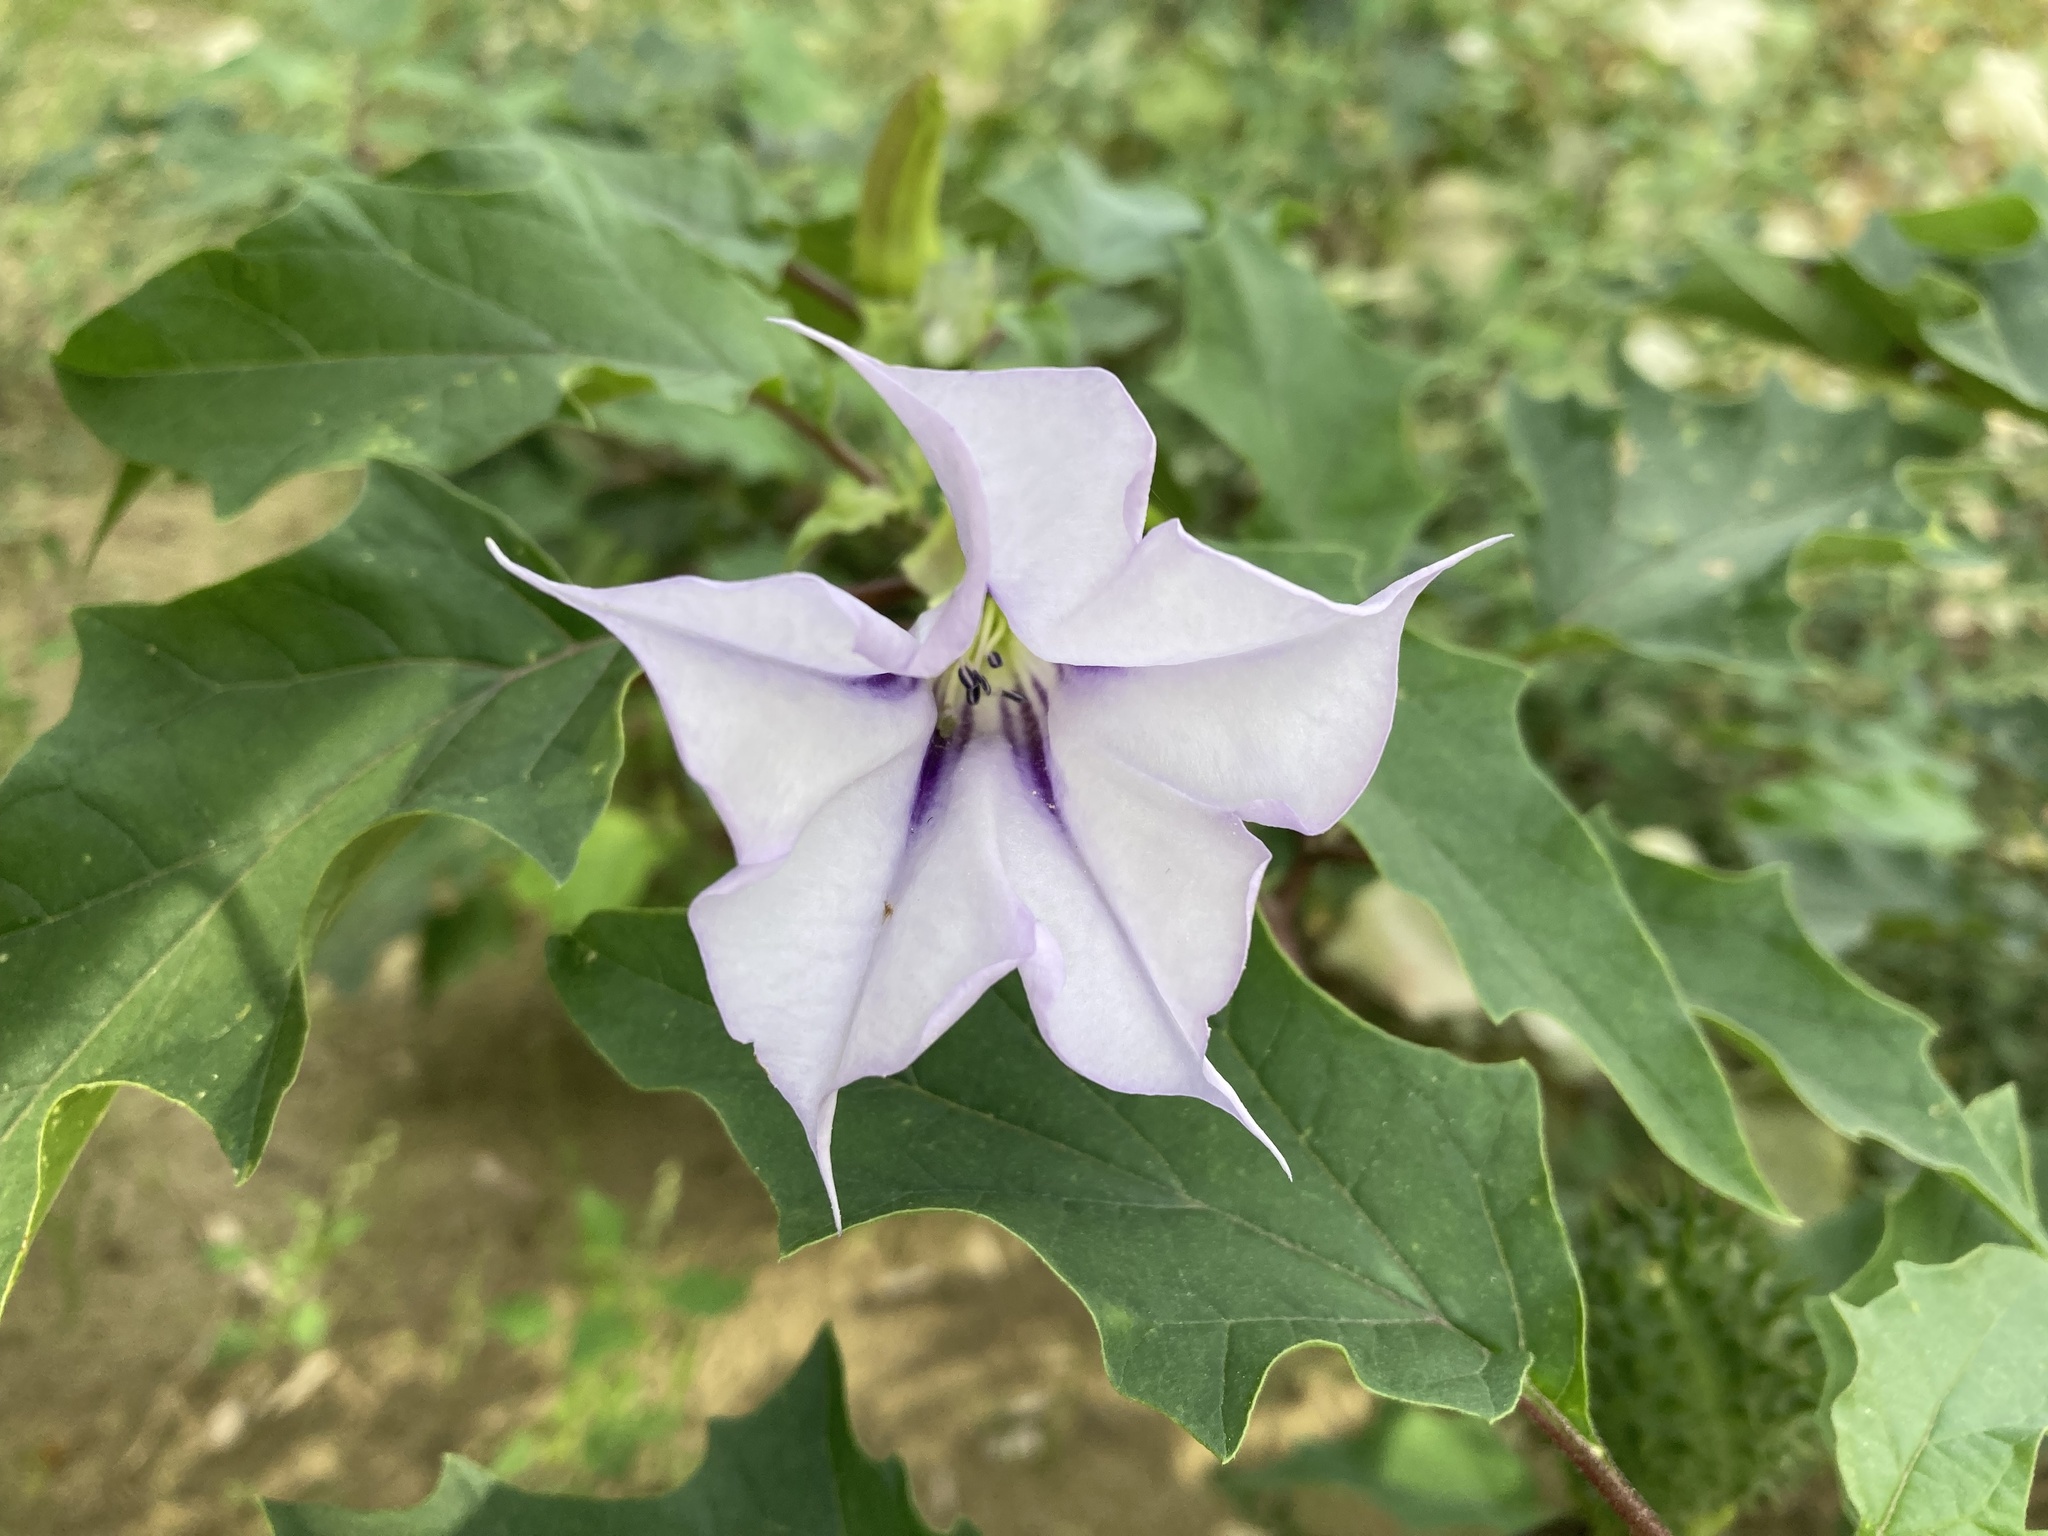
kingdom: Plantae
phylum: Tracheophyta
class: Magnoliopsida
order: Solanales
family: Solanaceae
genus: Datura
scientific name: Datura stramonium
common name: Thorn-apple
